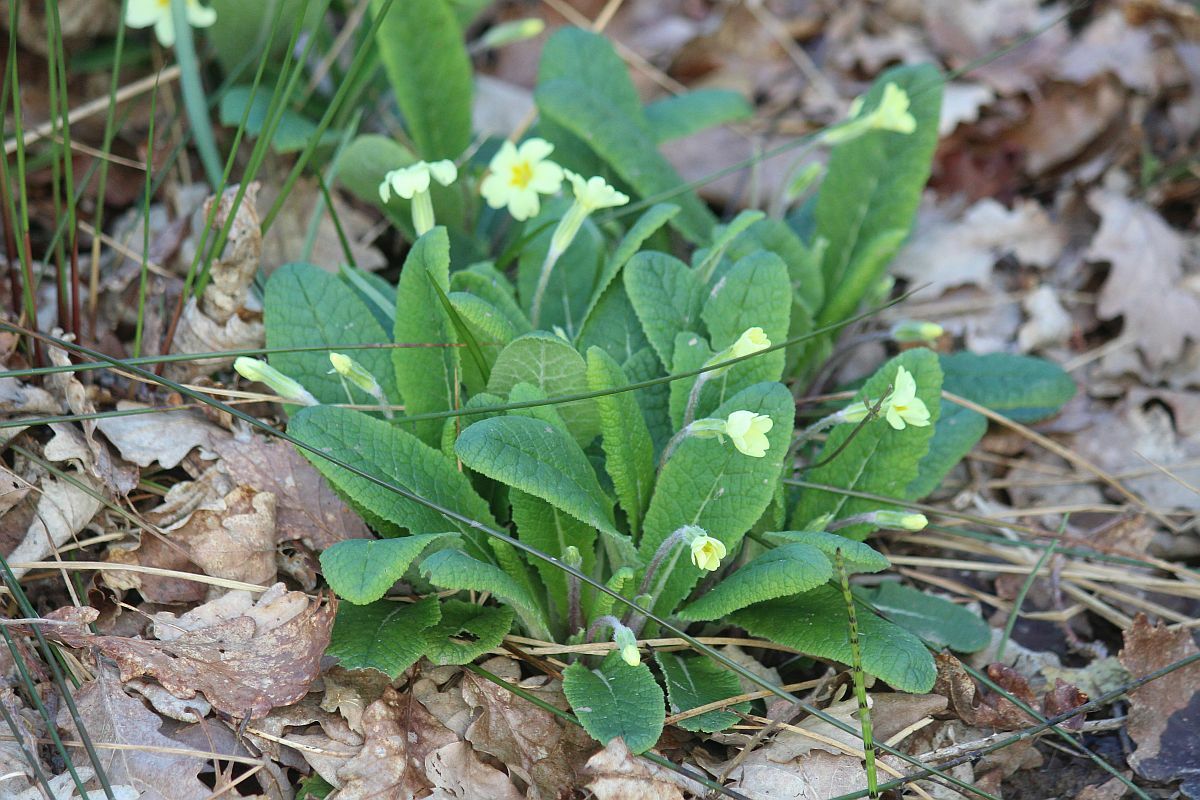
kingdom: Plantae
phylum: Tracheophyta
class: Magnoliopsida
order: Ericales
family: Primulaceae
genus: Primula
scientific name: Primula vulgaris
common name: Primrose
